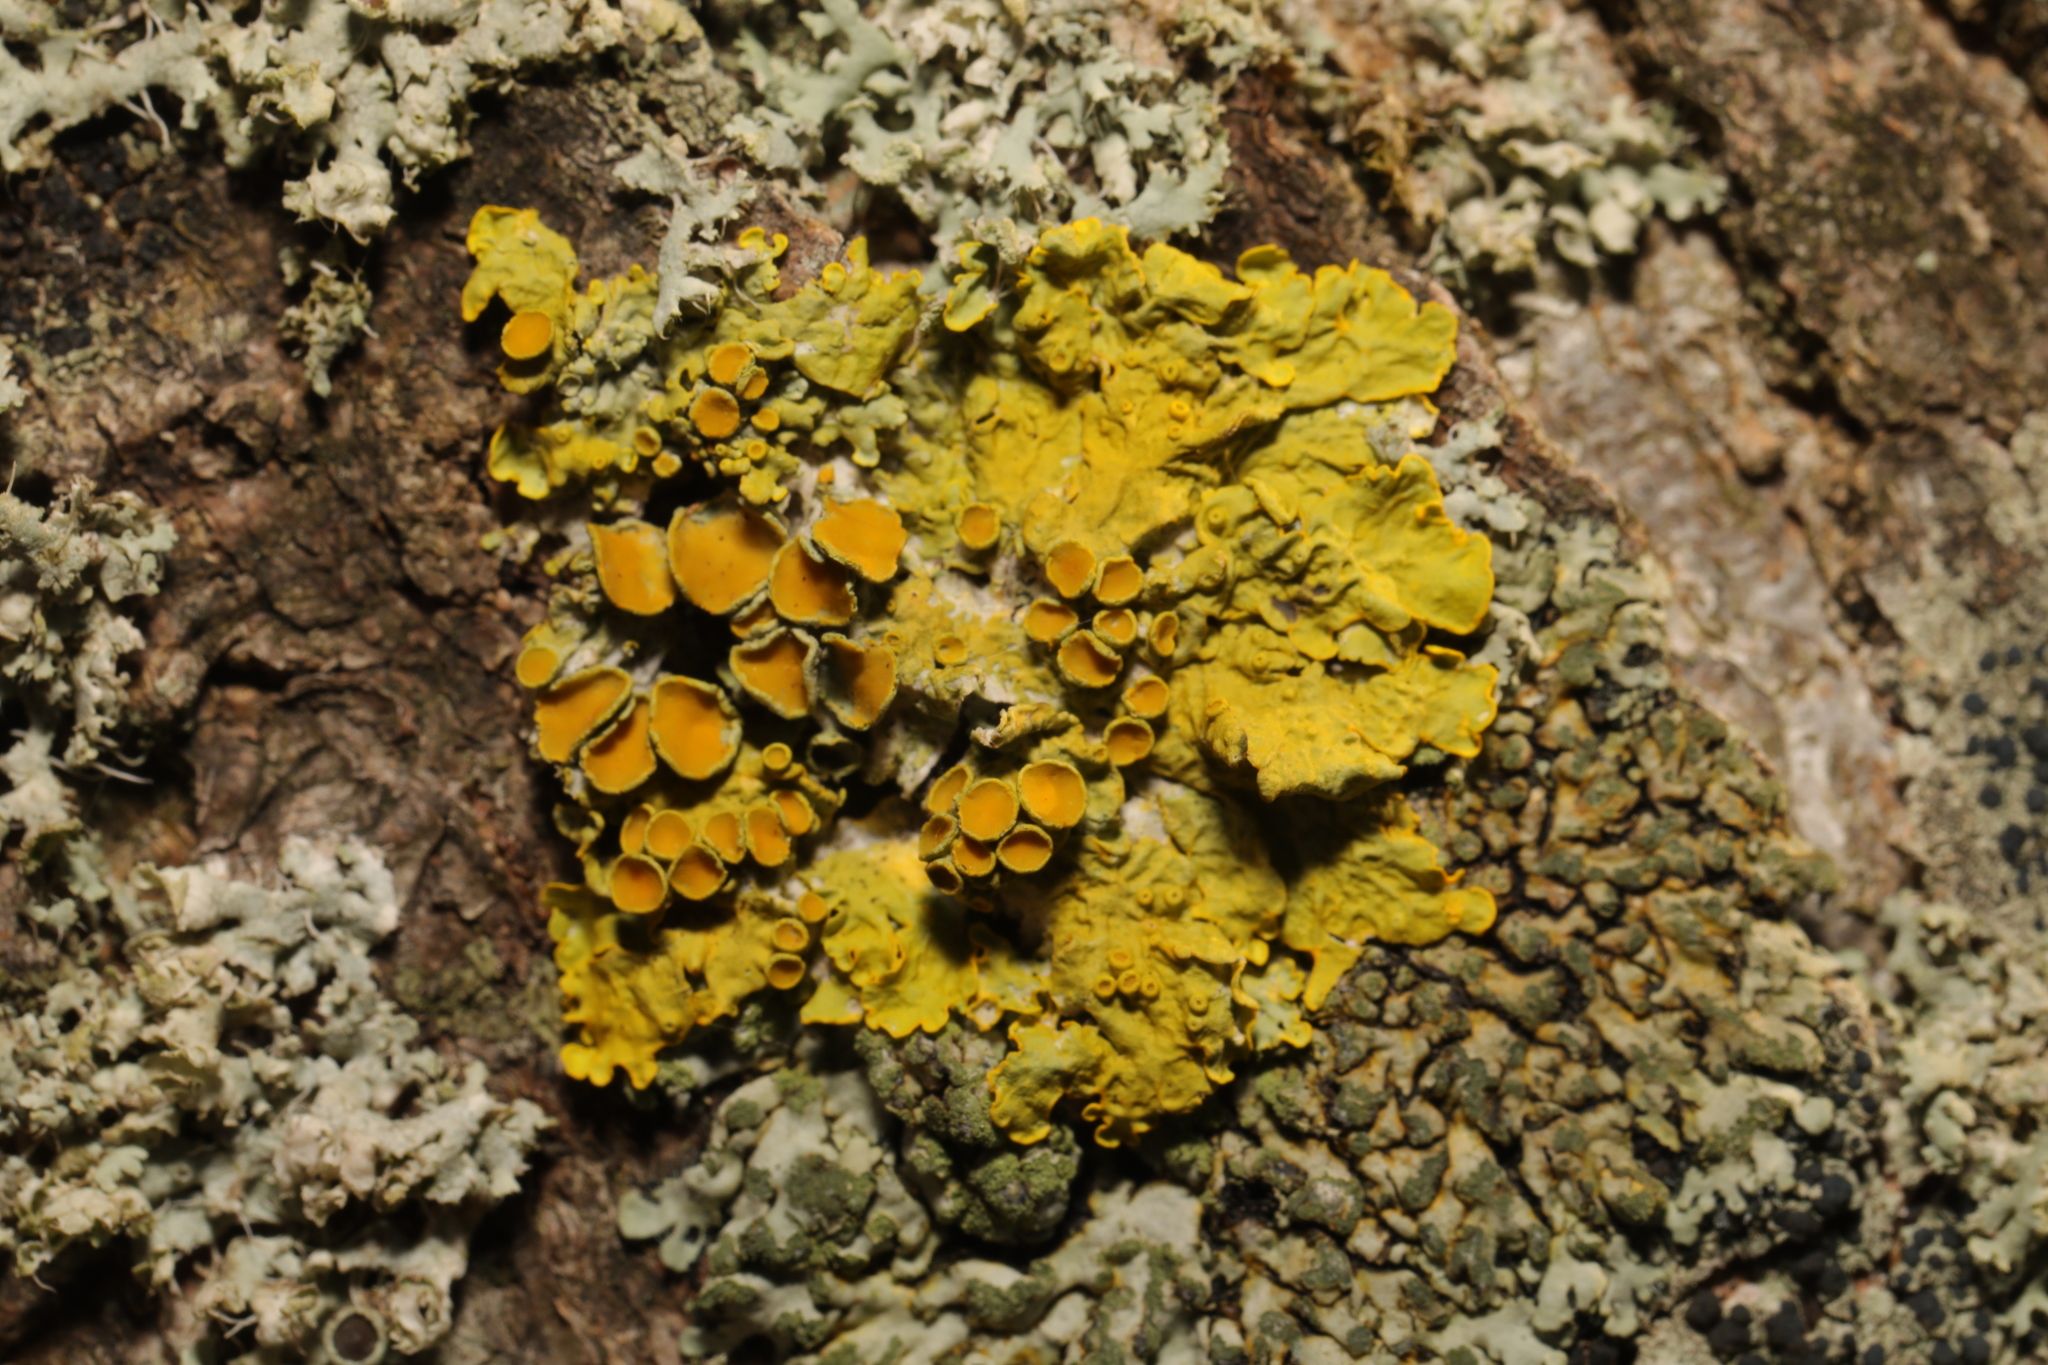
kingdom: Fungi
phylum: Ascomycota
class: Lecanoromycetes
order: Teloschistales
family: Teloschistaceae
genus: Xanthoria
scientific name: Xanthoria parietina
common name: Common orange lichen
